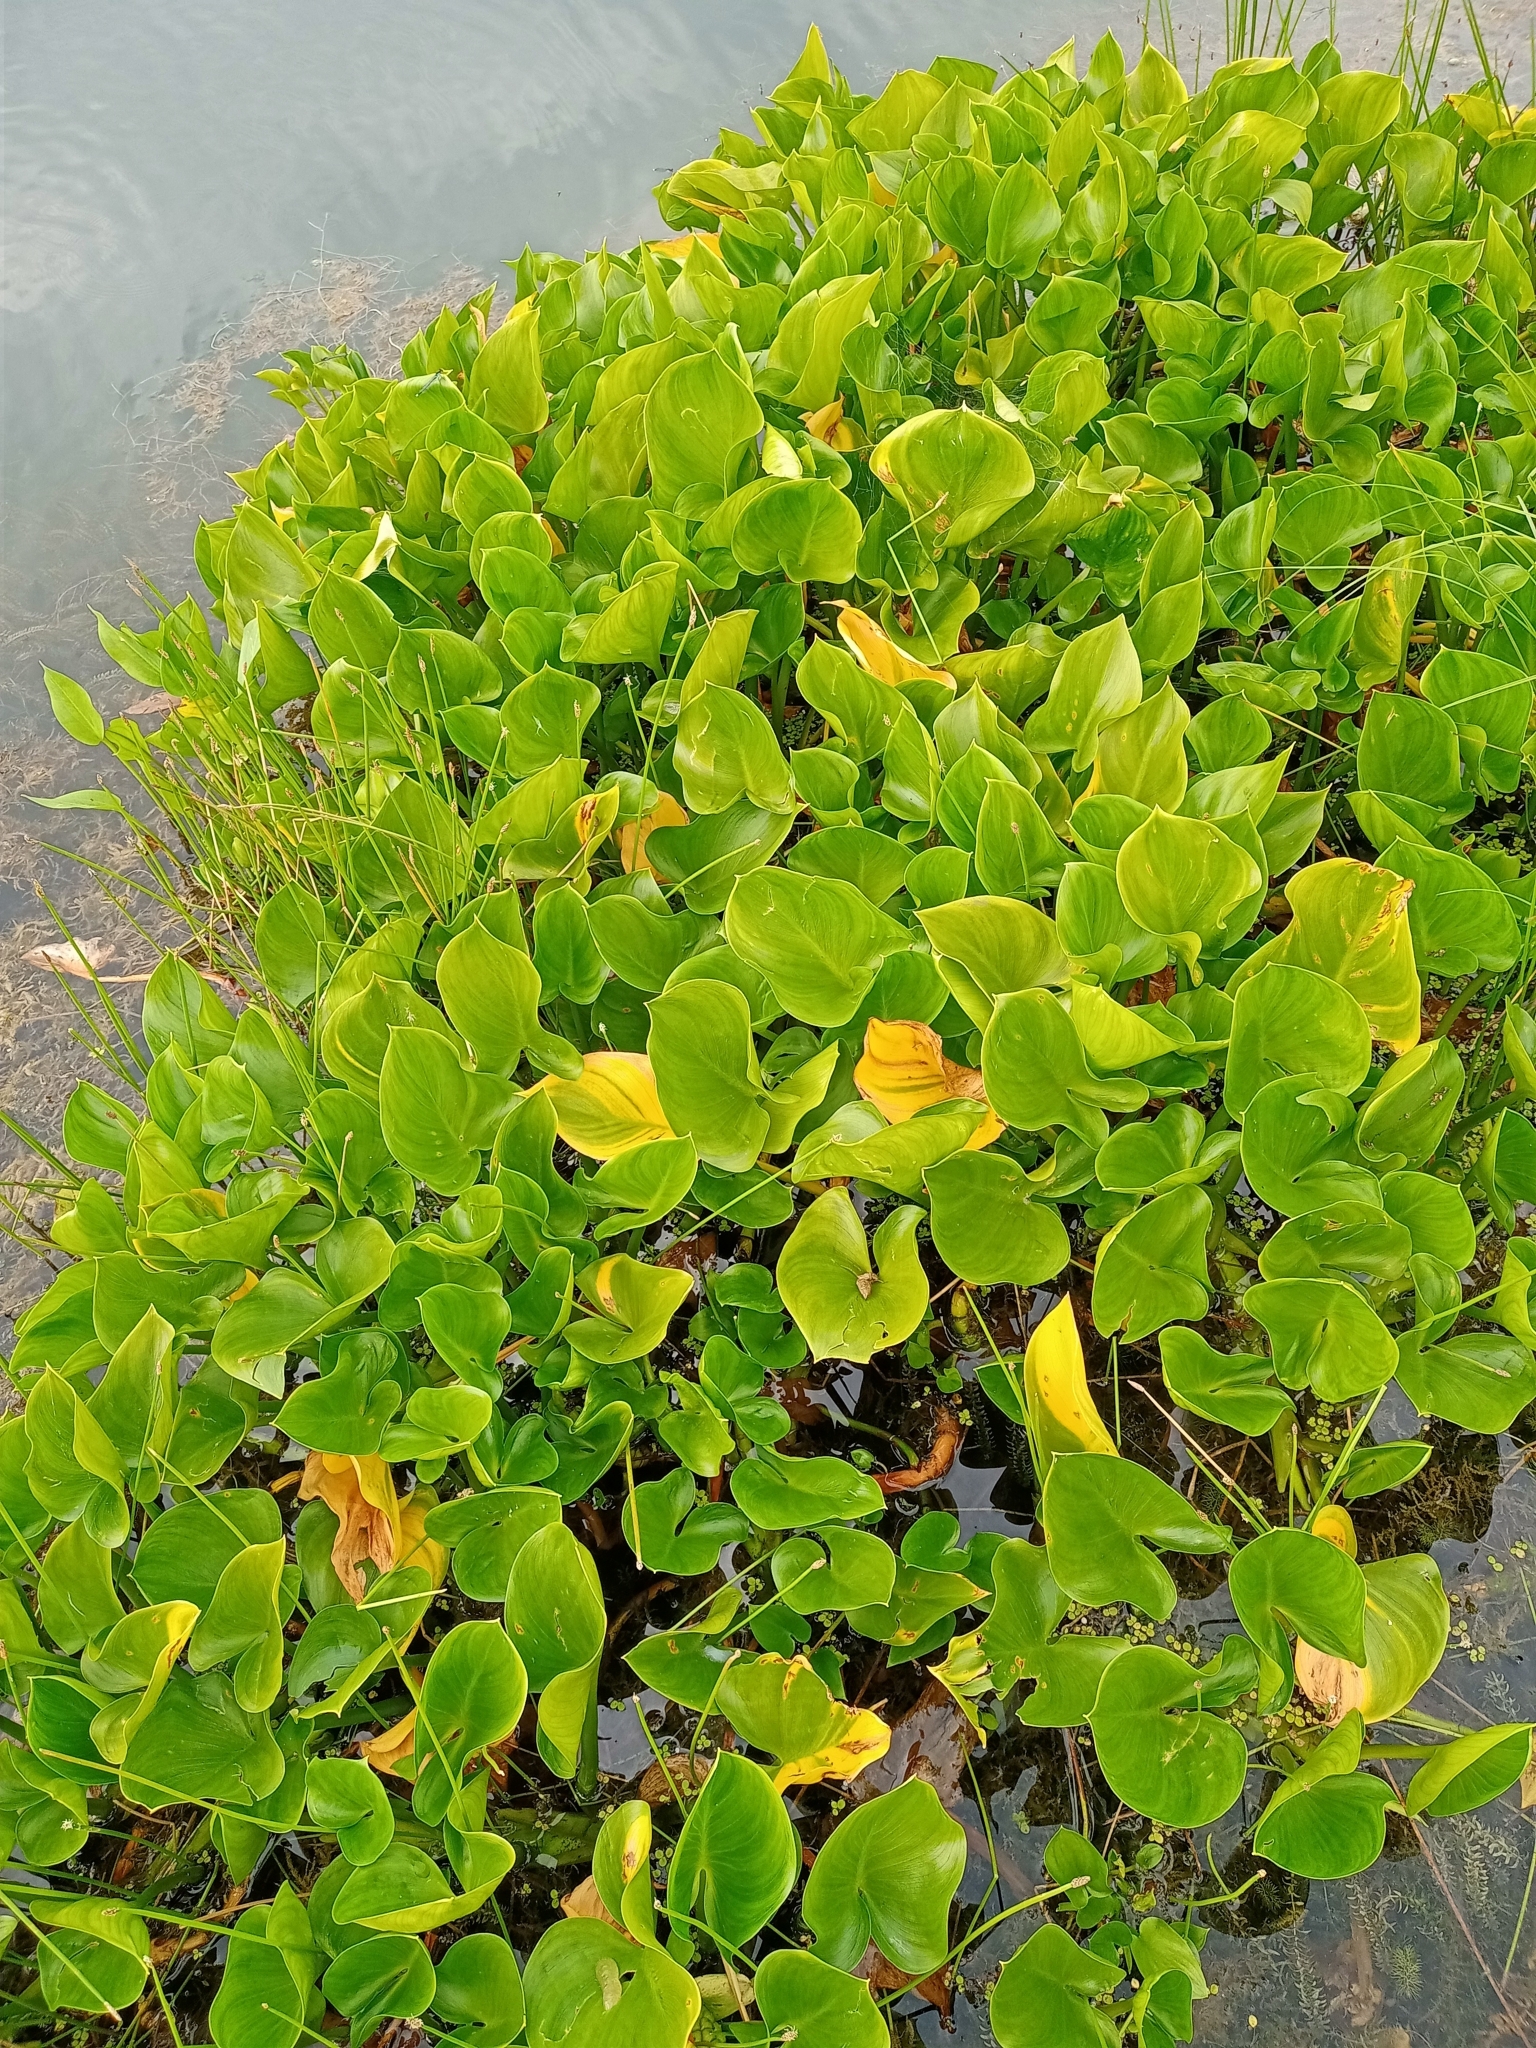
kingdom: Plantae
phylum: Tracheophyta
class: Liliopsida
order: Alismatales
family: Araceae
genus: Calla
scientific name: Calla palustris
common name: Bog arum
